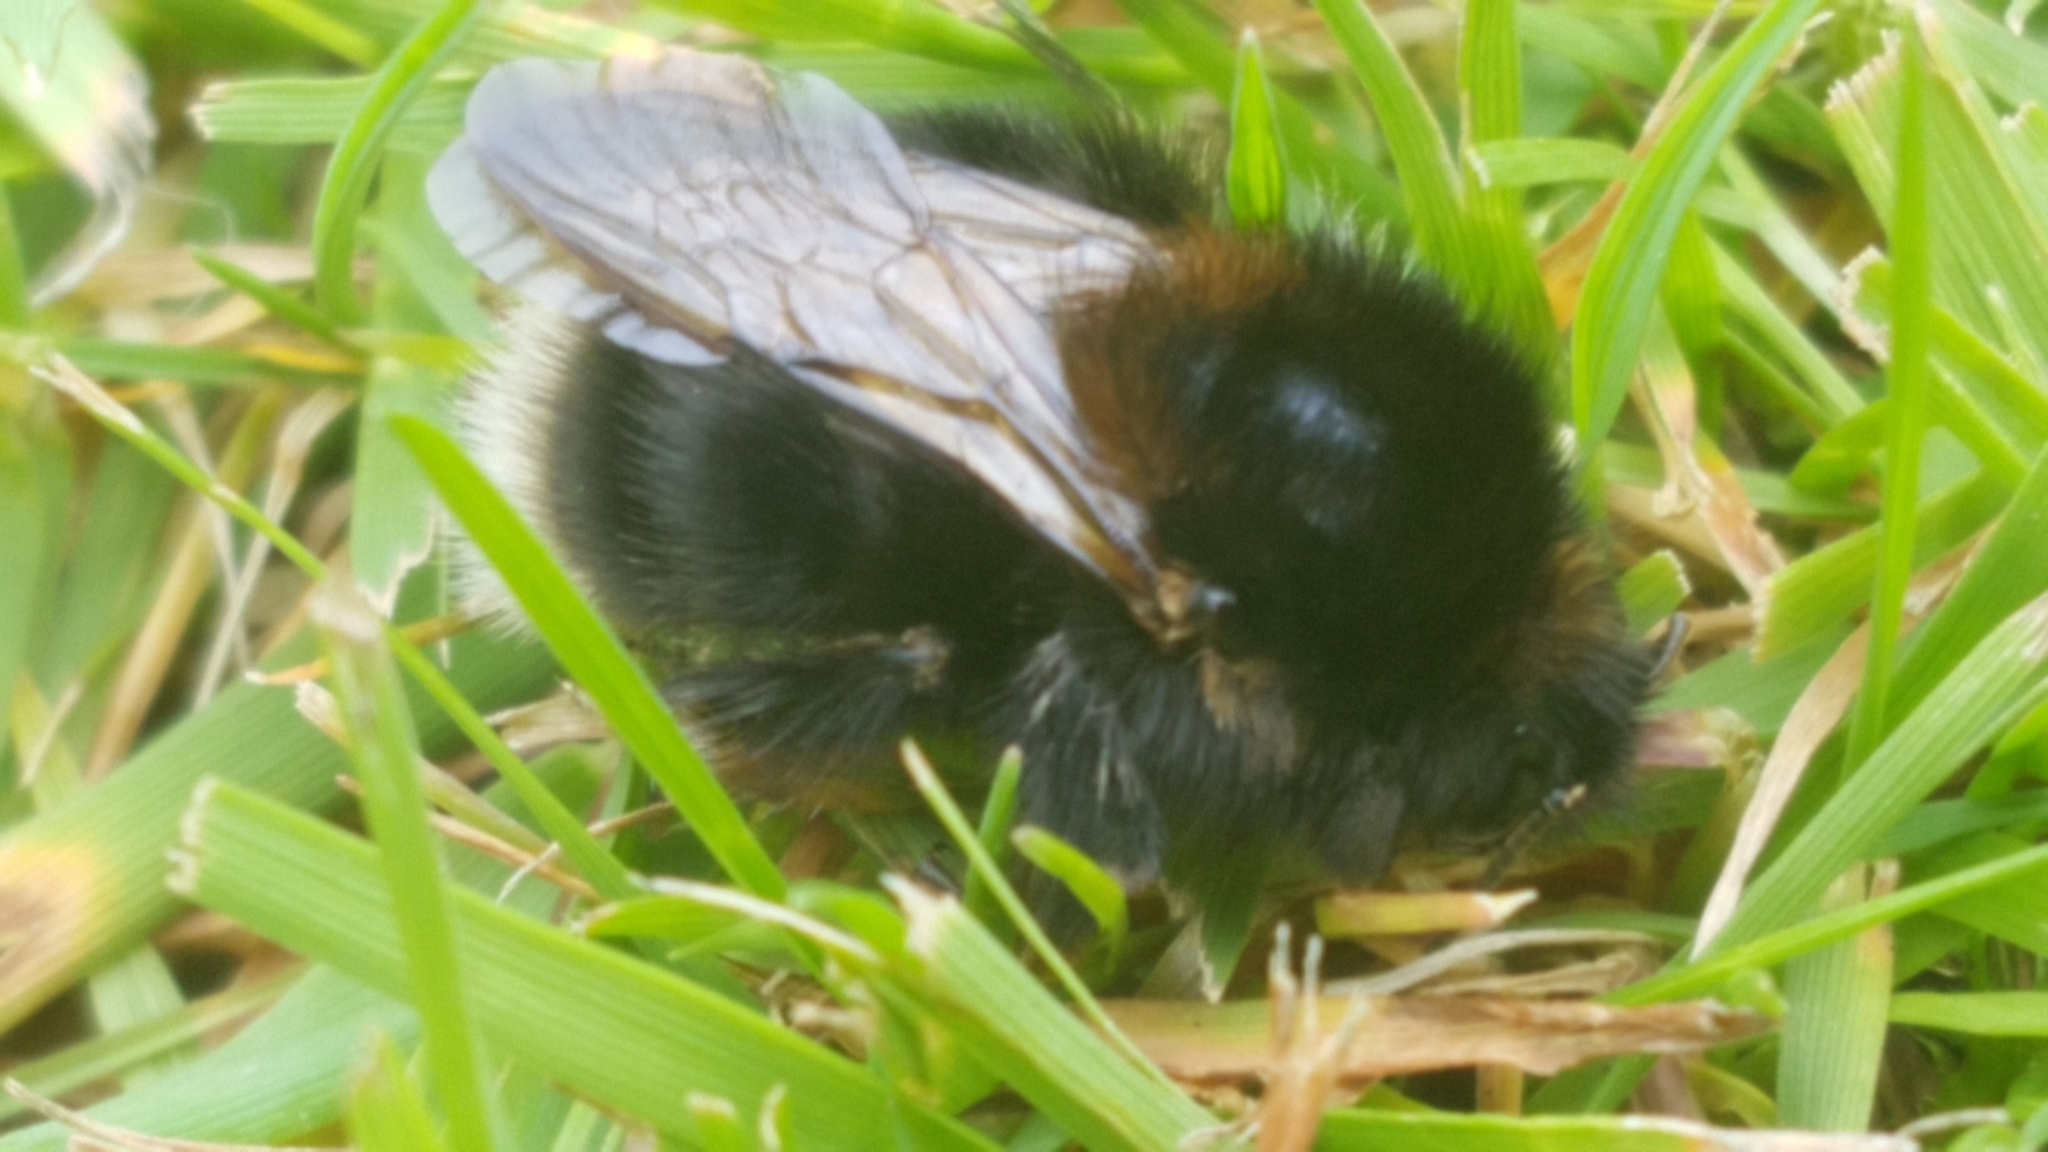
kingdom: Animalia
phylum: Arthropoda
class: Insecta
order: Hymenoptera
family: Apidae
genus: Bombus
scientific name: Bombus hypnorum
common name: New garden bumblebee
